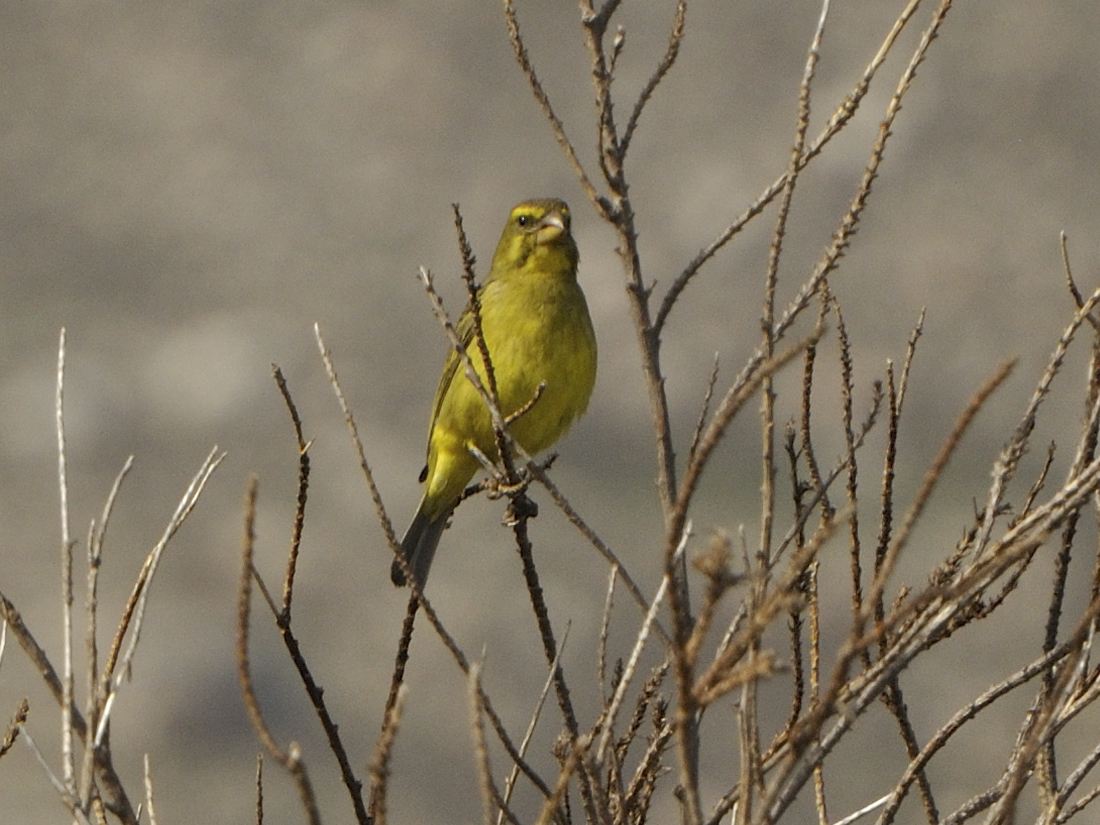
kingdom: Animalia
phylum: Chordata
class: Aves
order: Passeriformes
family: Fringillidae
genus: Crithagra
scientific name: Crithagra sulphurata
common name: Brimstone canary
